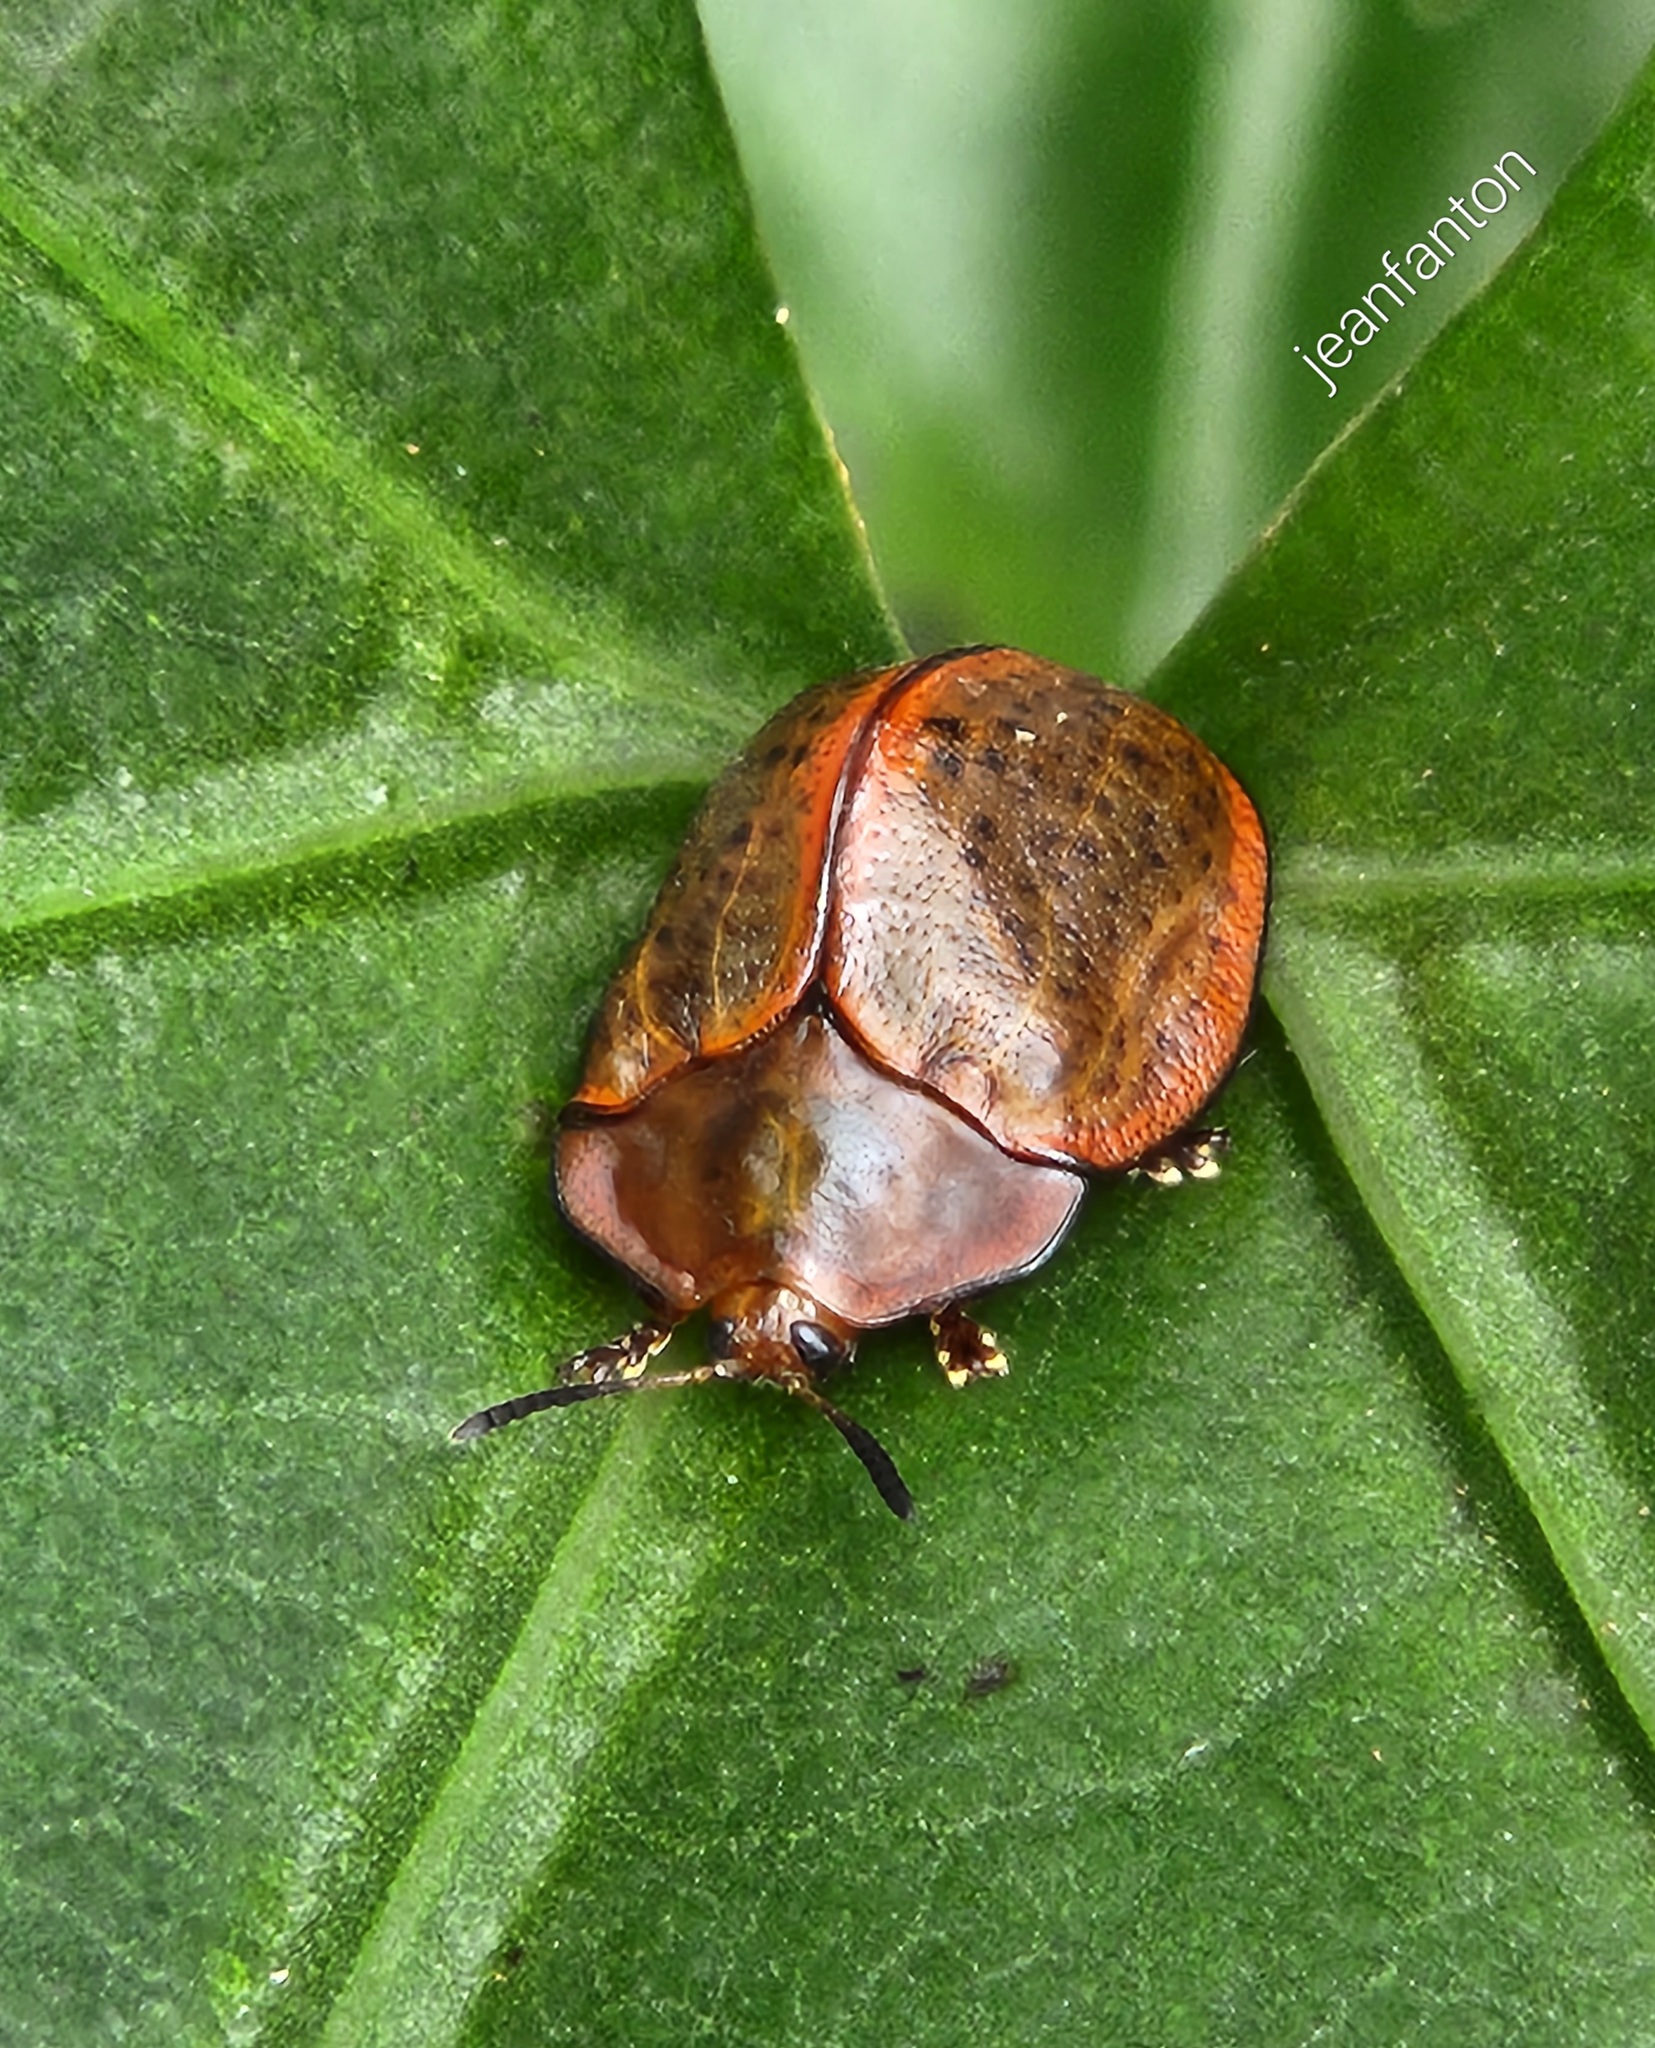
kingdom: Animalia
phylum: Arthropoda
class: Insecta
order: Coleoptera
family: Chrysomelidae
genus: Chelymorpha
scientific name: Chelymorpha inflata
